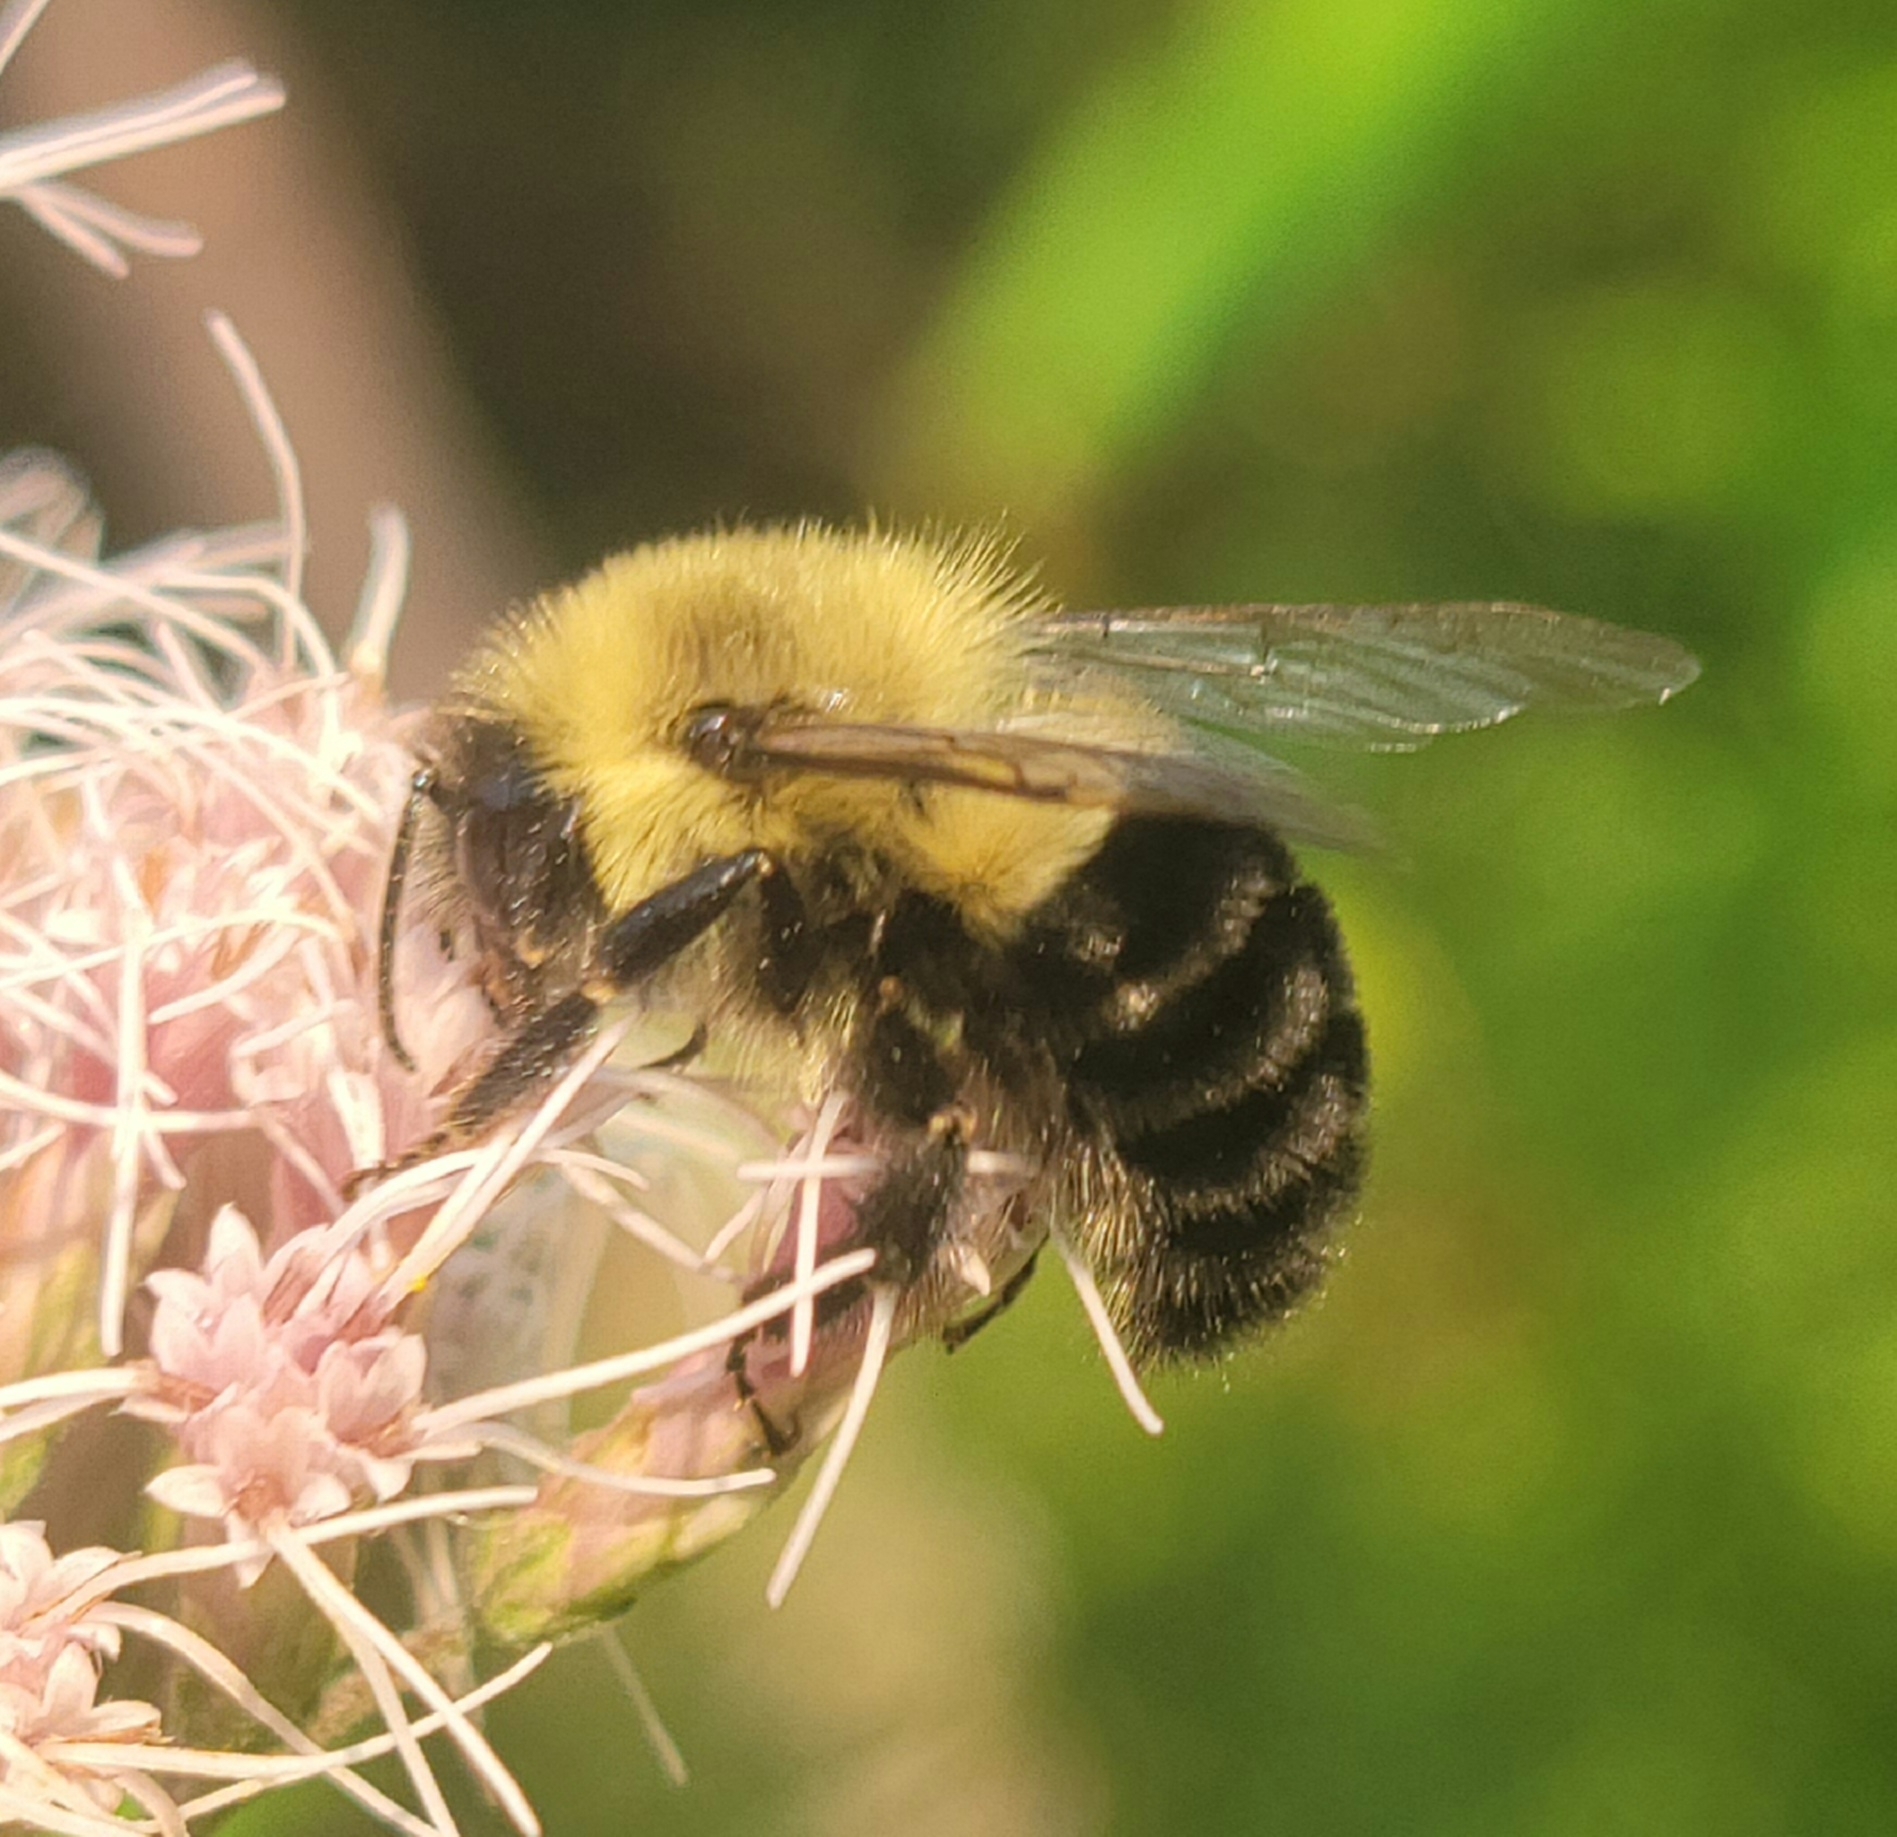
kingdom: Animalia
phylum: Arthropoda
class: Insecta
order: Hymenoptera
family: Apidae
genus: Bombus
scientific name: Bombus impatiens
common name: Common eastern bumble bee
